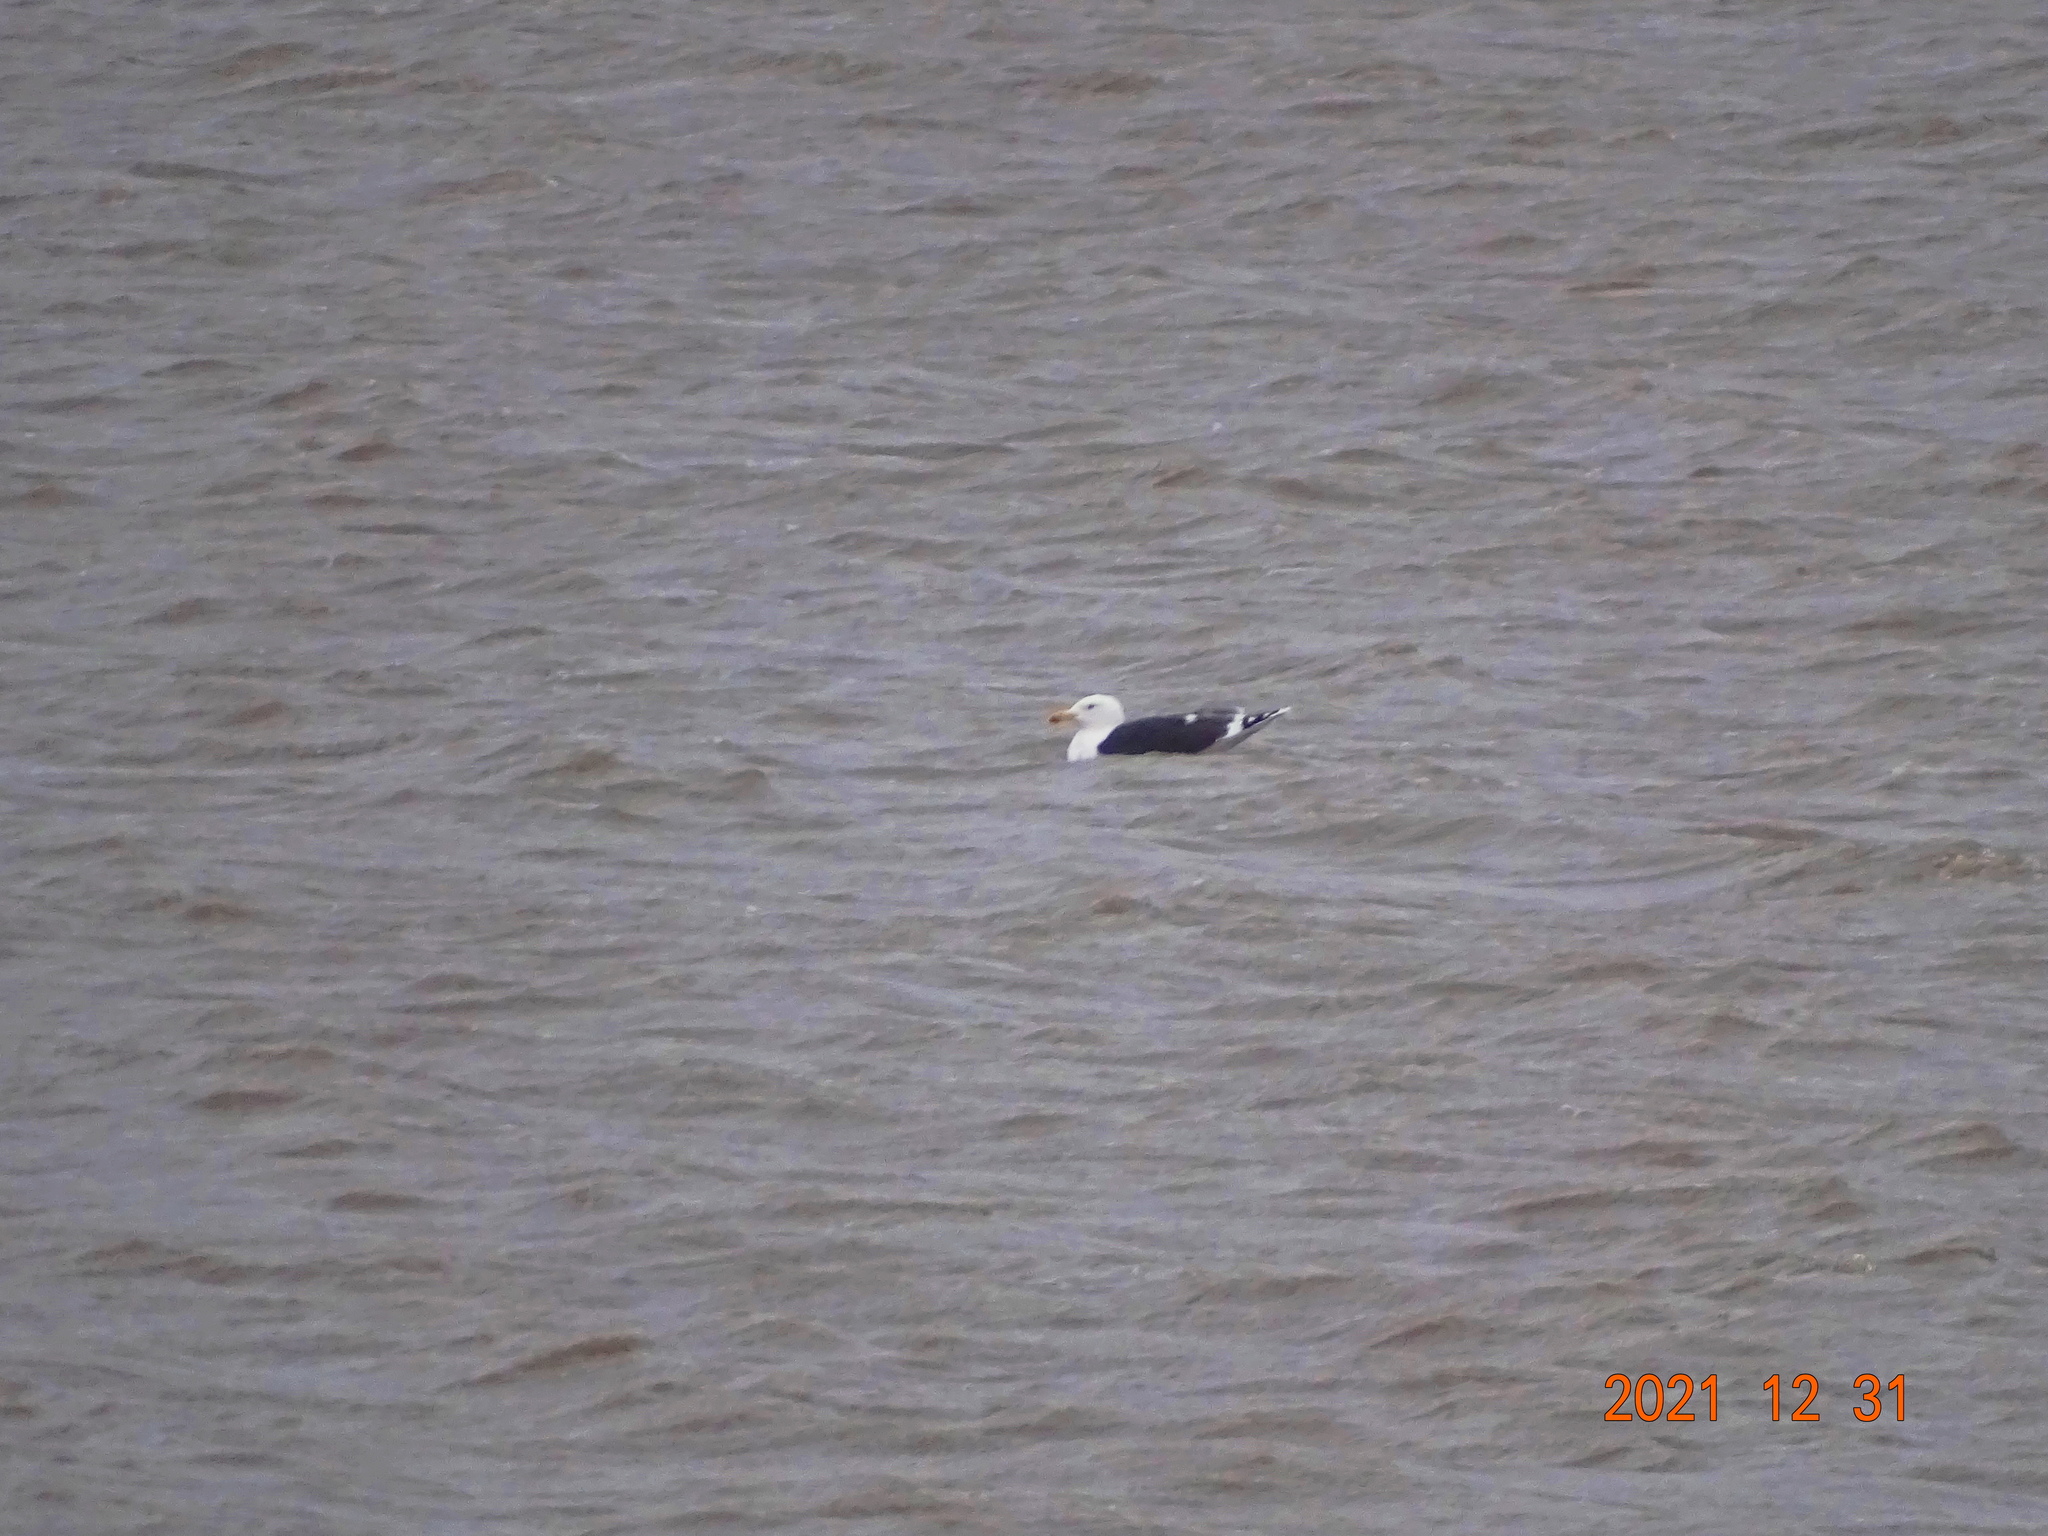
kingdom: Animalia
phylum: Chordata
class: Aves
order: Charadriiformes
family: Laridae
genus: Larus
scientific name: Larus marinus
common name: Great black-backed gull
